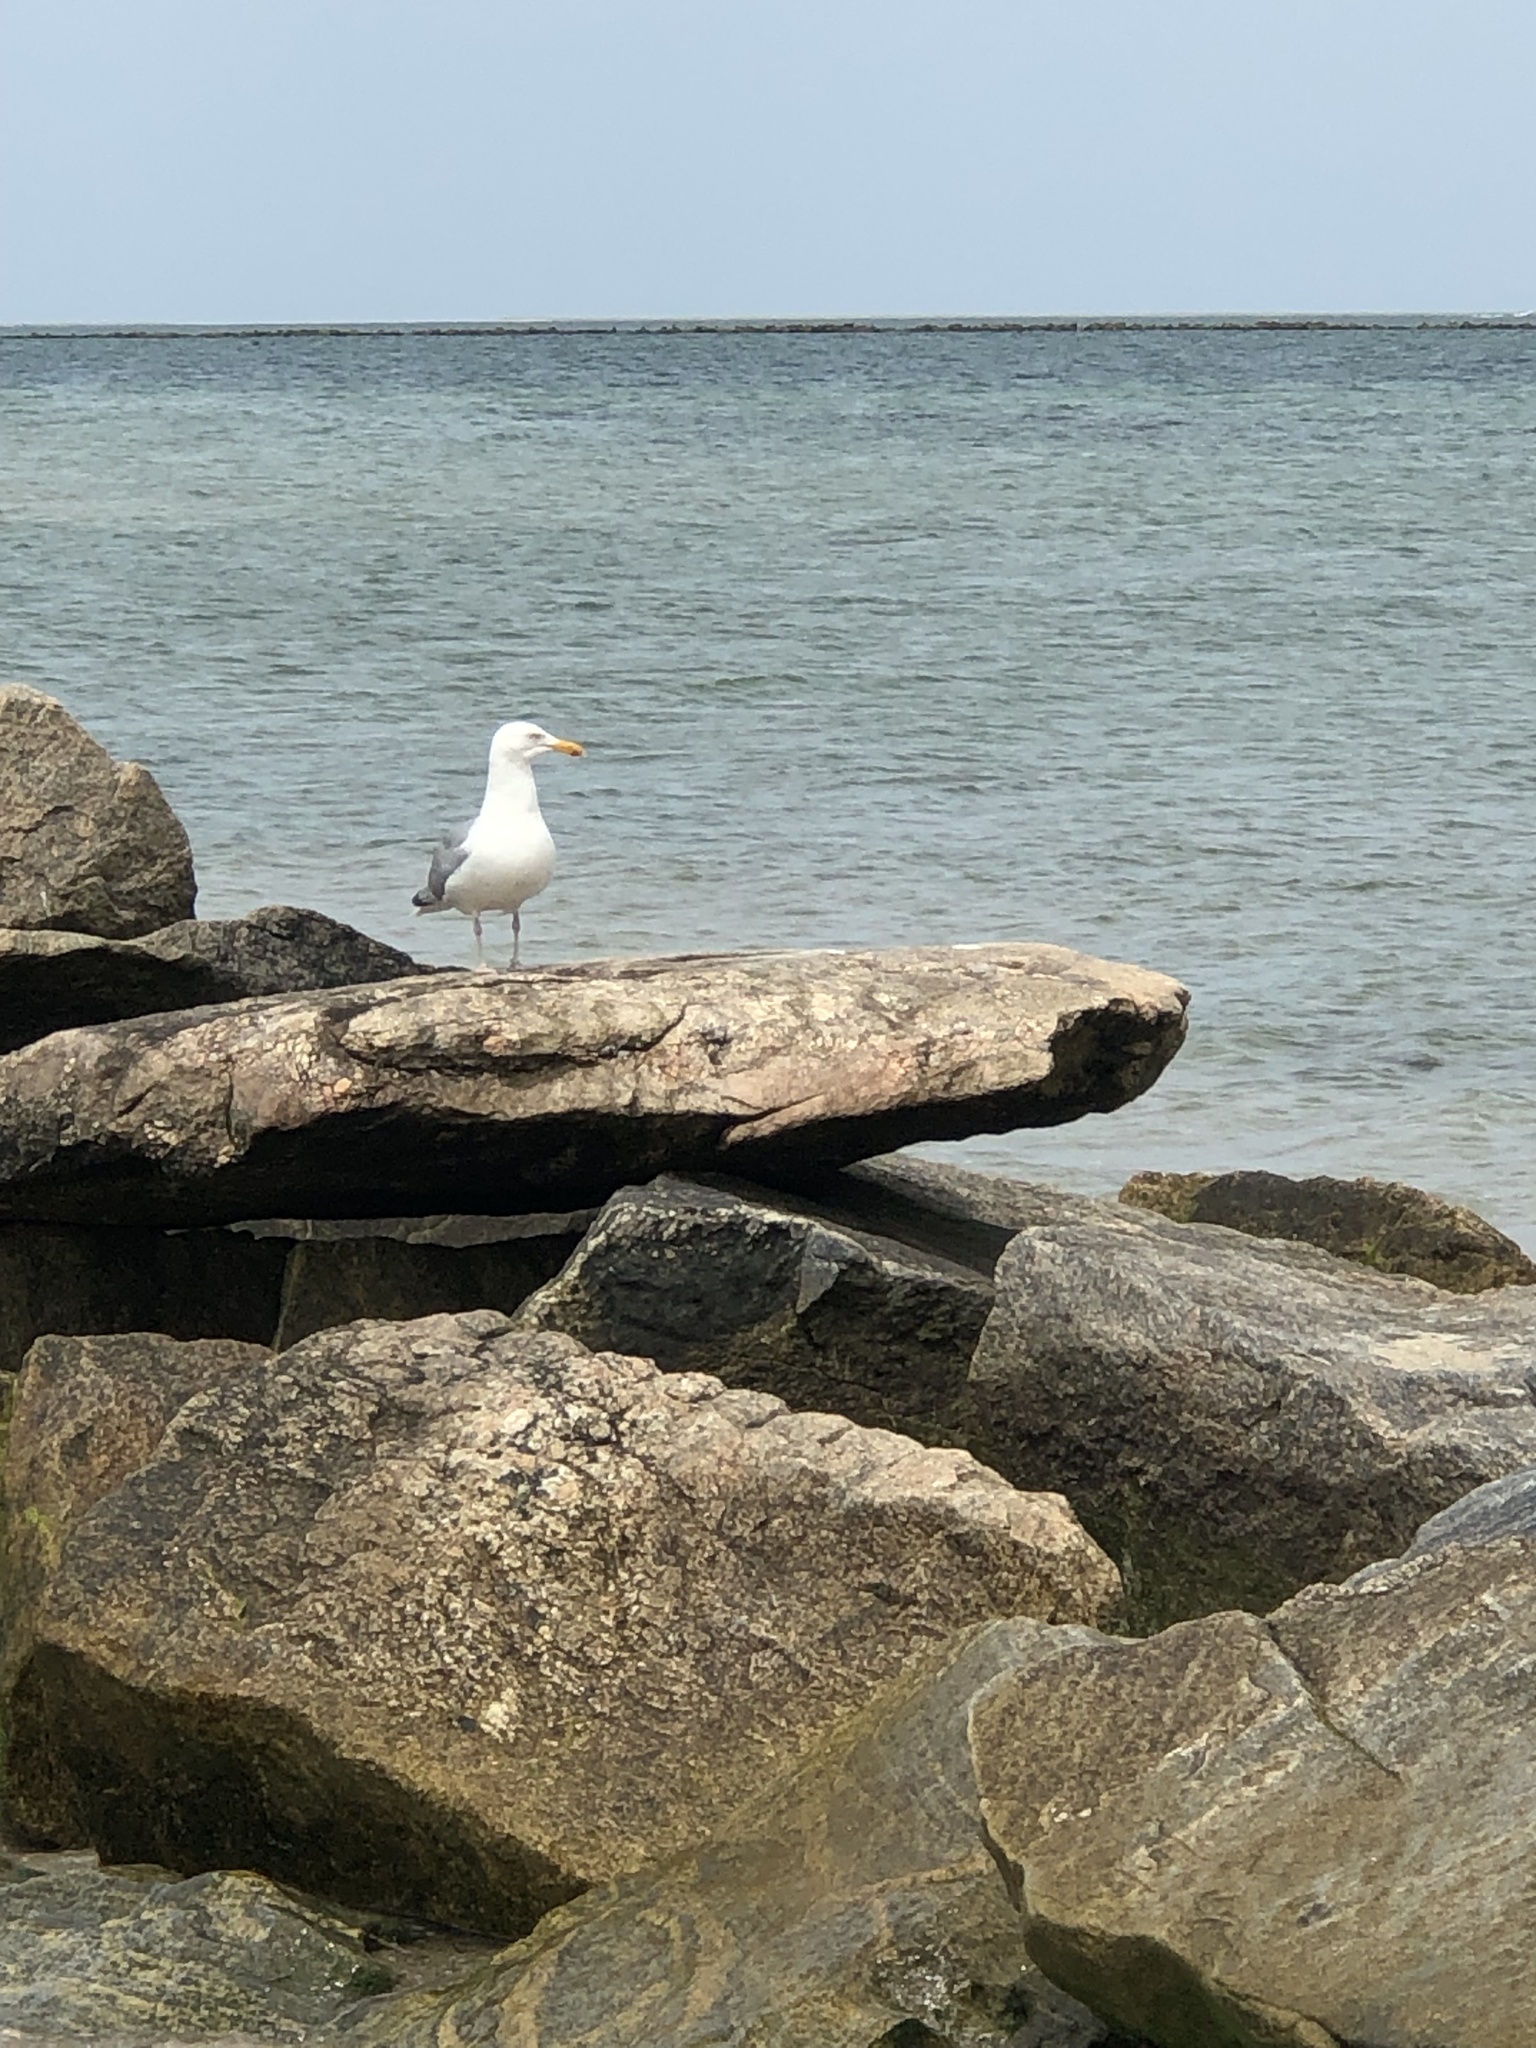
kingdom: Animalia
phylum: Chordata
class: Aves
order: Charadriiformes
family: Laridae
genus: Larus
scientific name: Larus argentatus
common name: Herring gull
